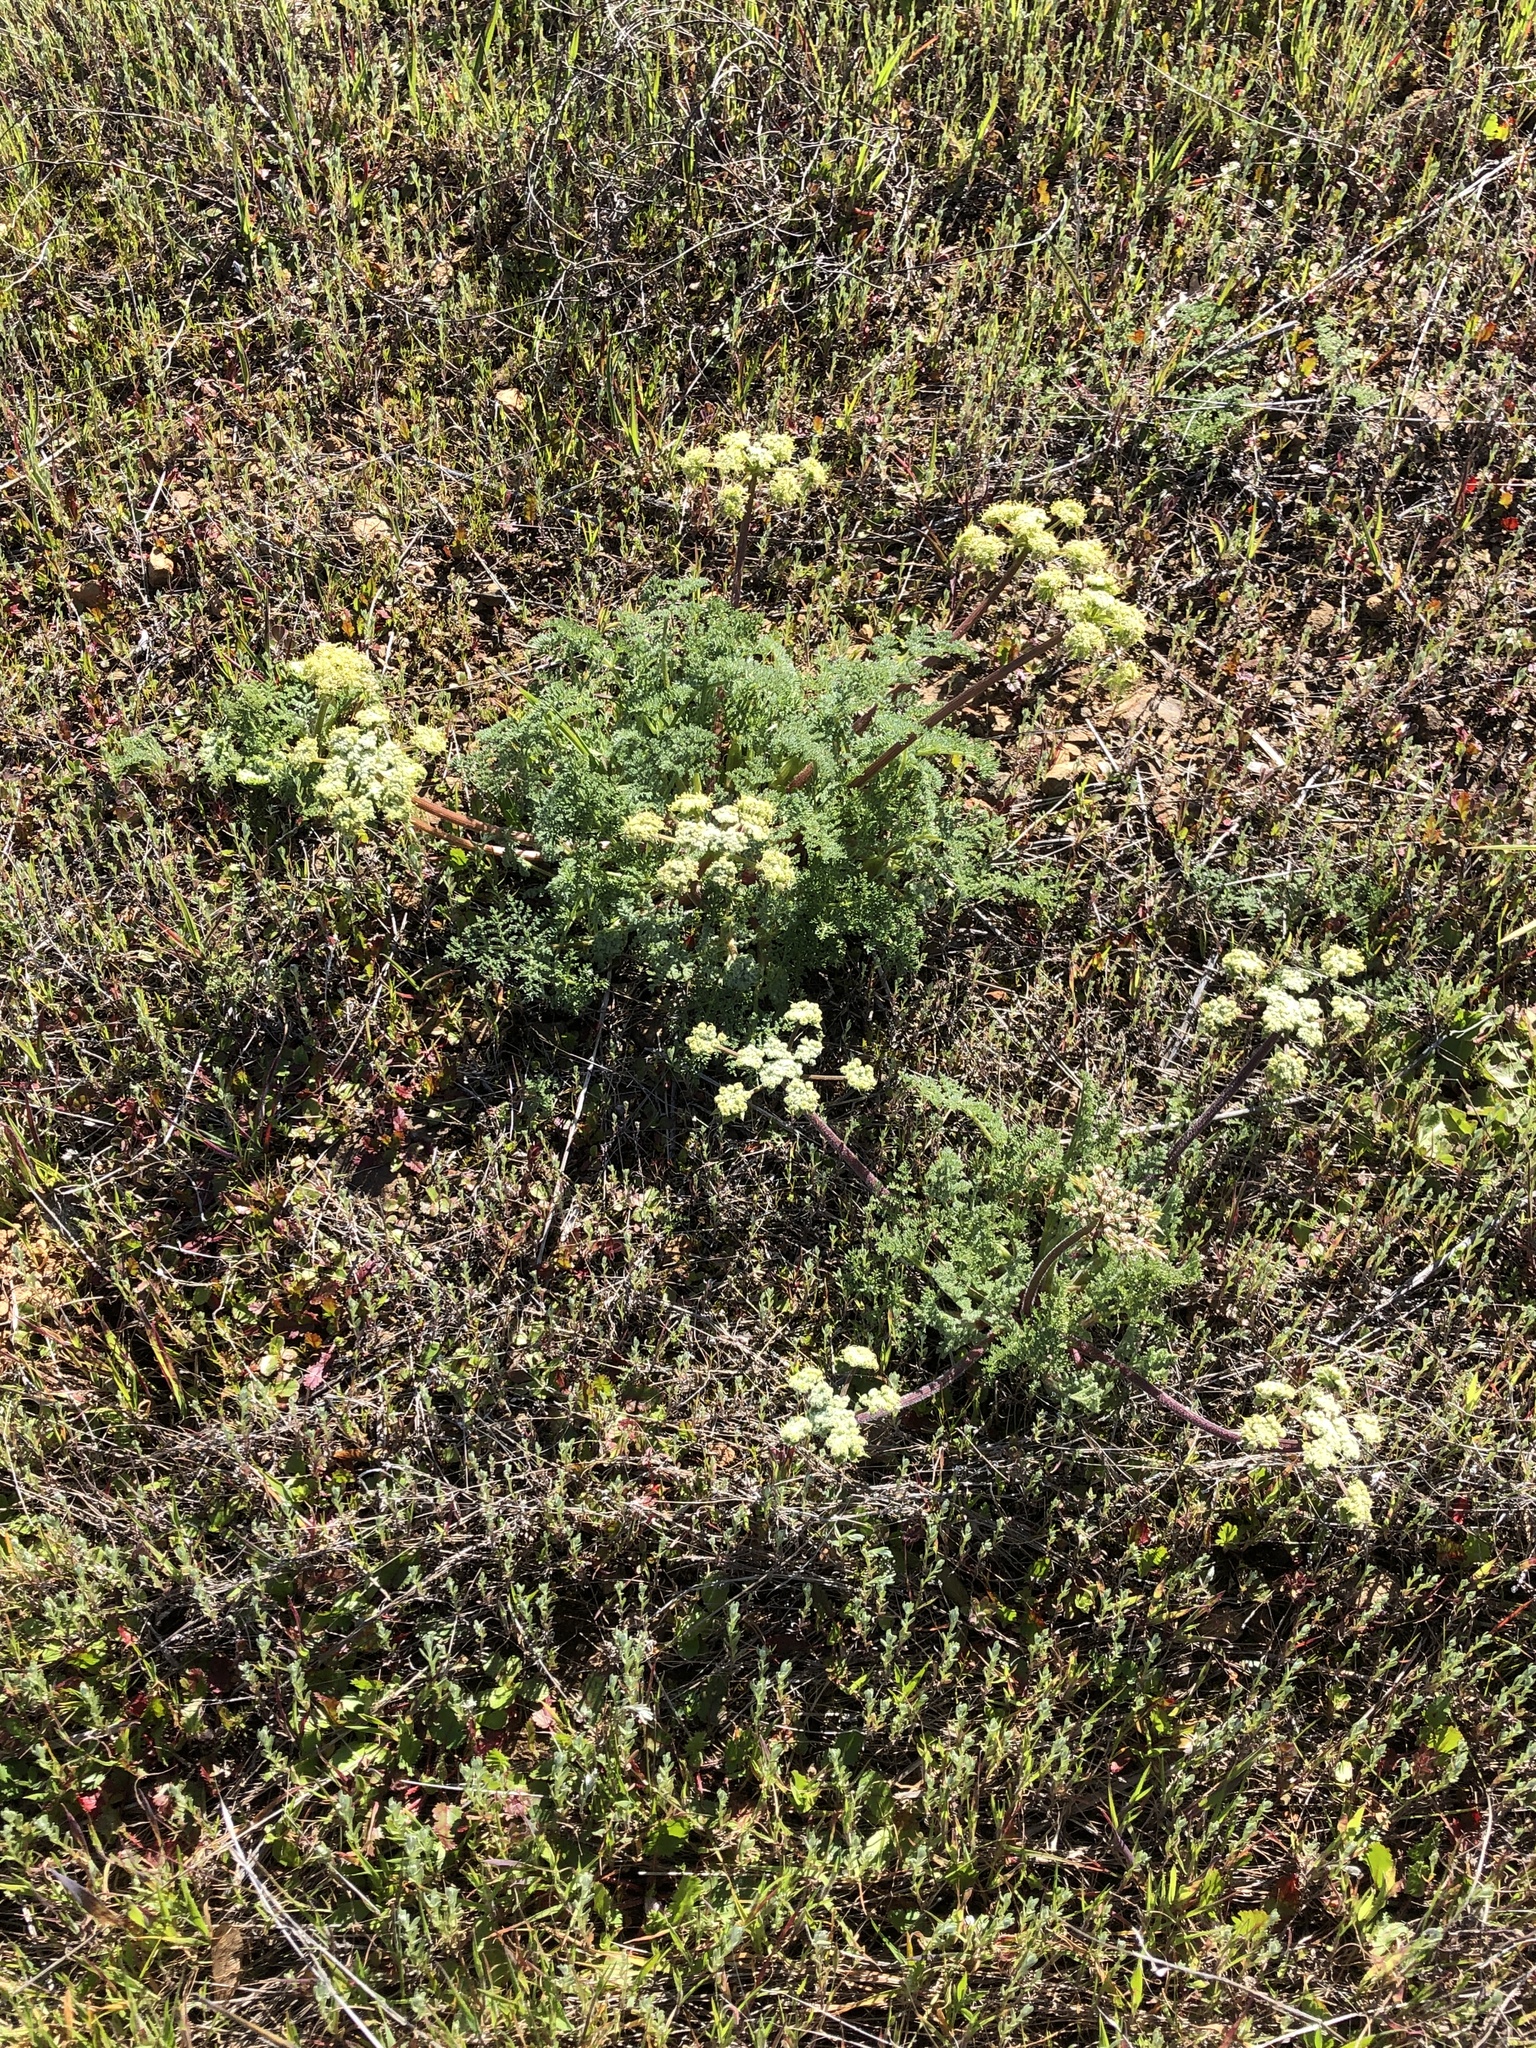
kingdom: Plantae
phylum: Tracheophyta
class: Magnoliopsida
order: Apiales
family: Apiaceae
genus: Lomatium
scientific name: Lomatium dasycarpum
